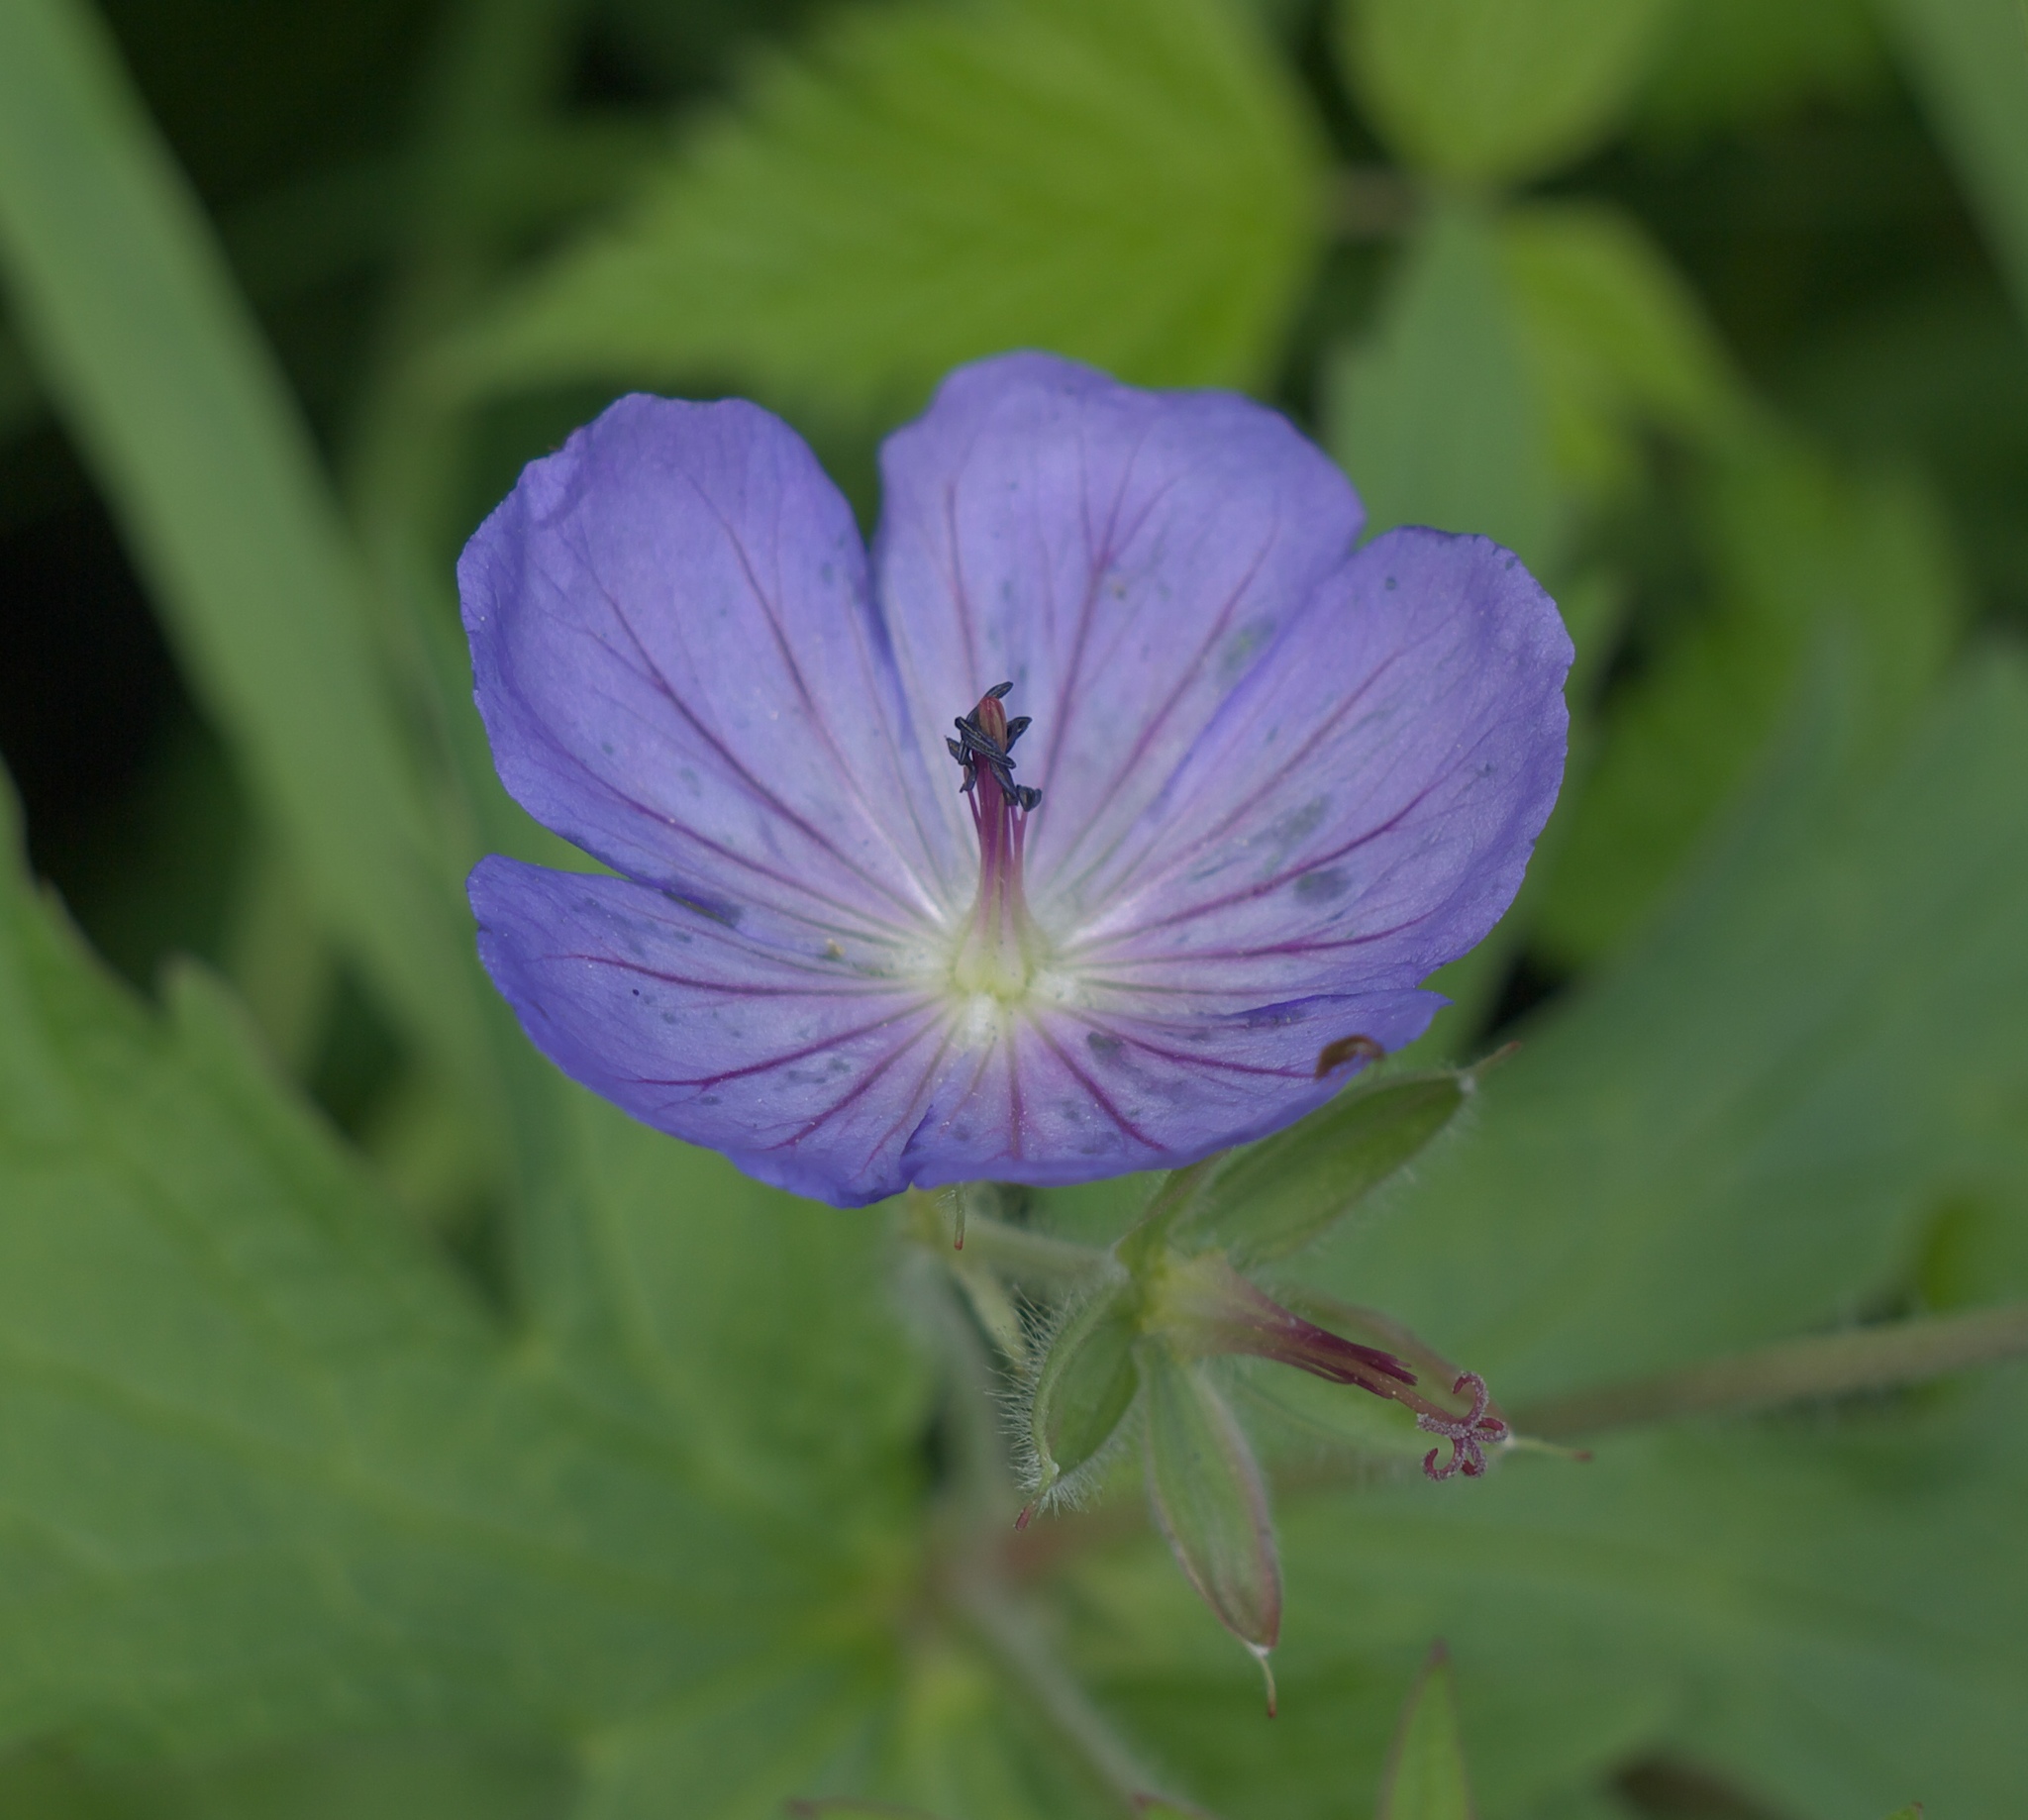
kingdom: Plantae
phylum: Tracheophyta
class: Magnoliopsida
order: Geraniales
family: Geraniaceae
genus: Geranium
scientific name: Geranium erianthum
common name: Northern crane's-bill
